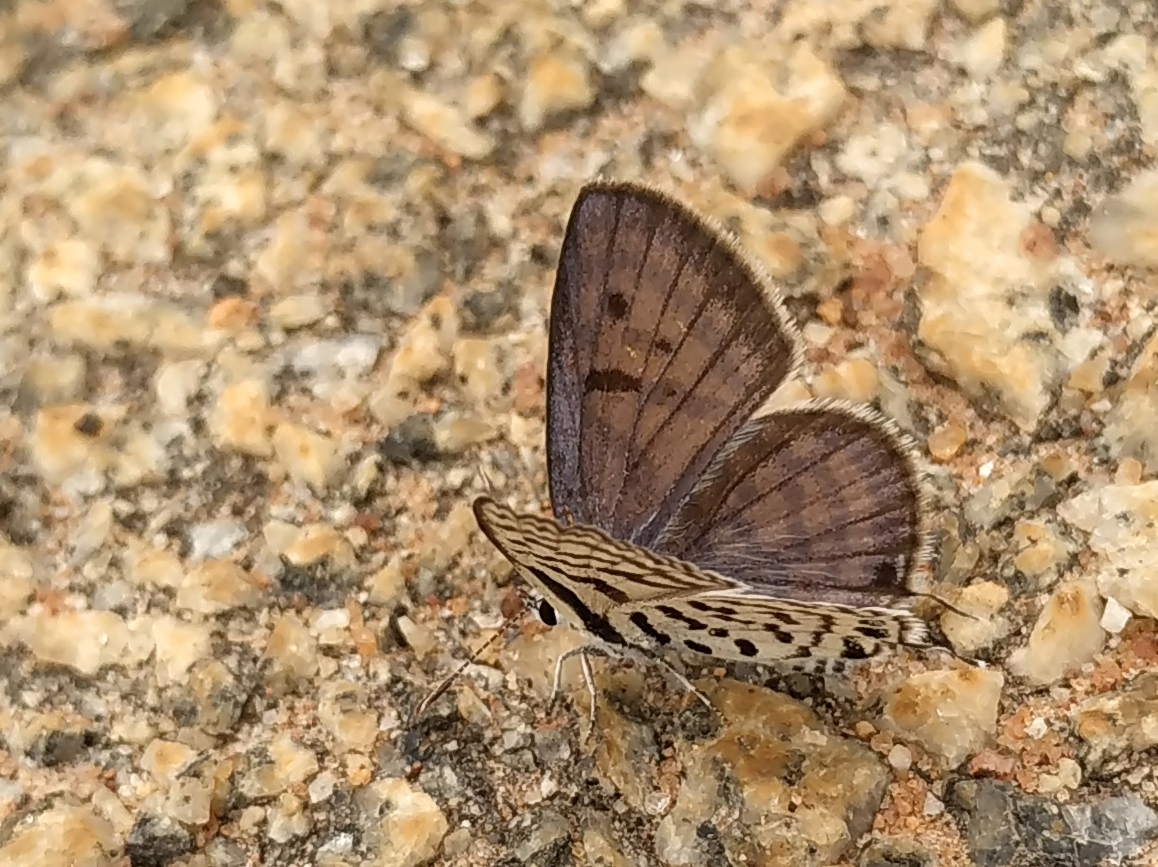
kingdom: Animalia
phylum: Arthropoda
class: Insecta
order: Lepidoptera
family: Lycaenidae
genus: Tarucus
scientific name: Tarucus balkanica
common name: Little tiger blue
